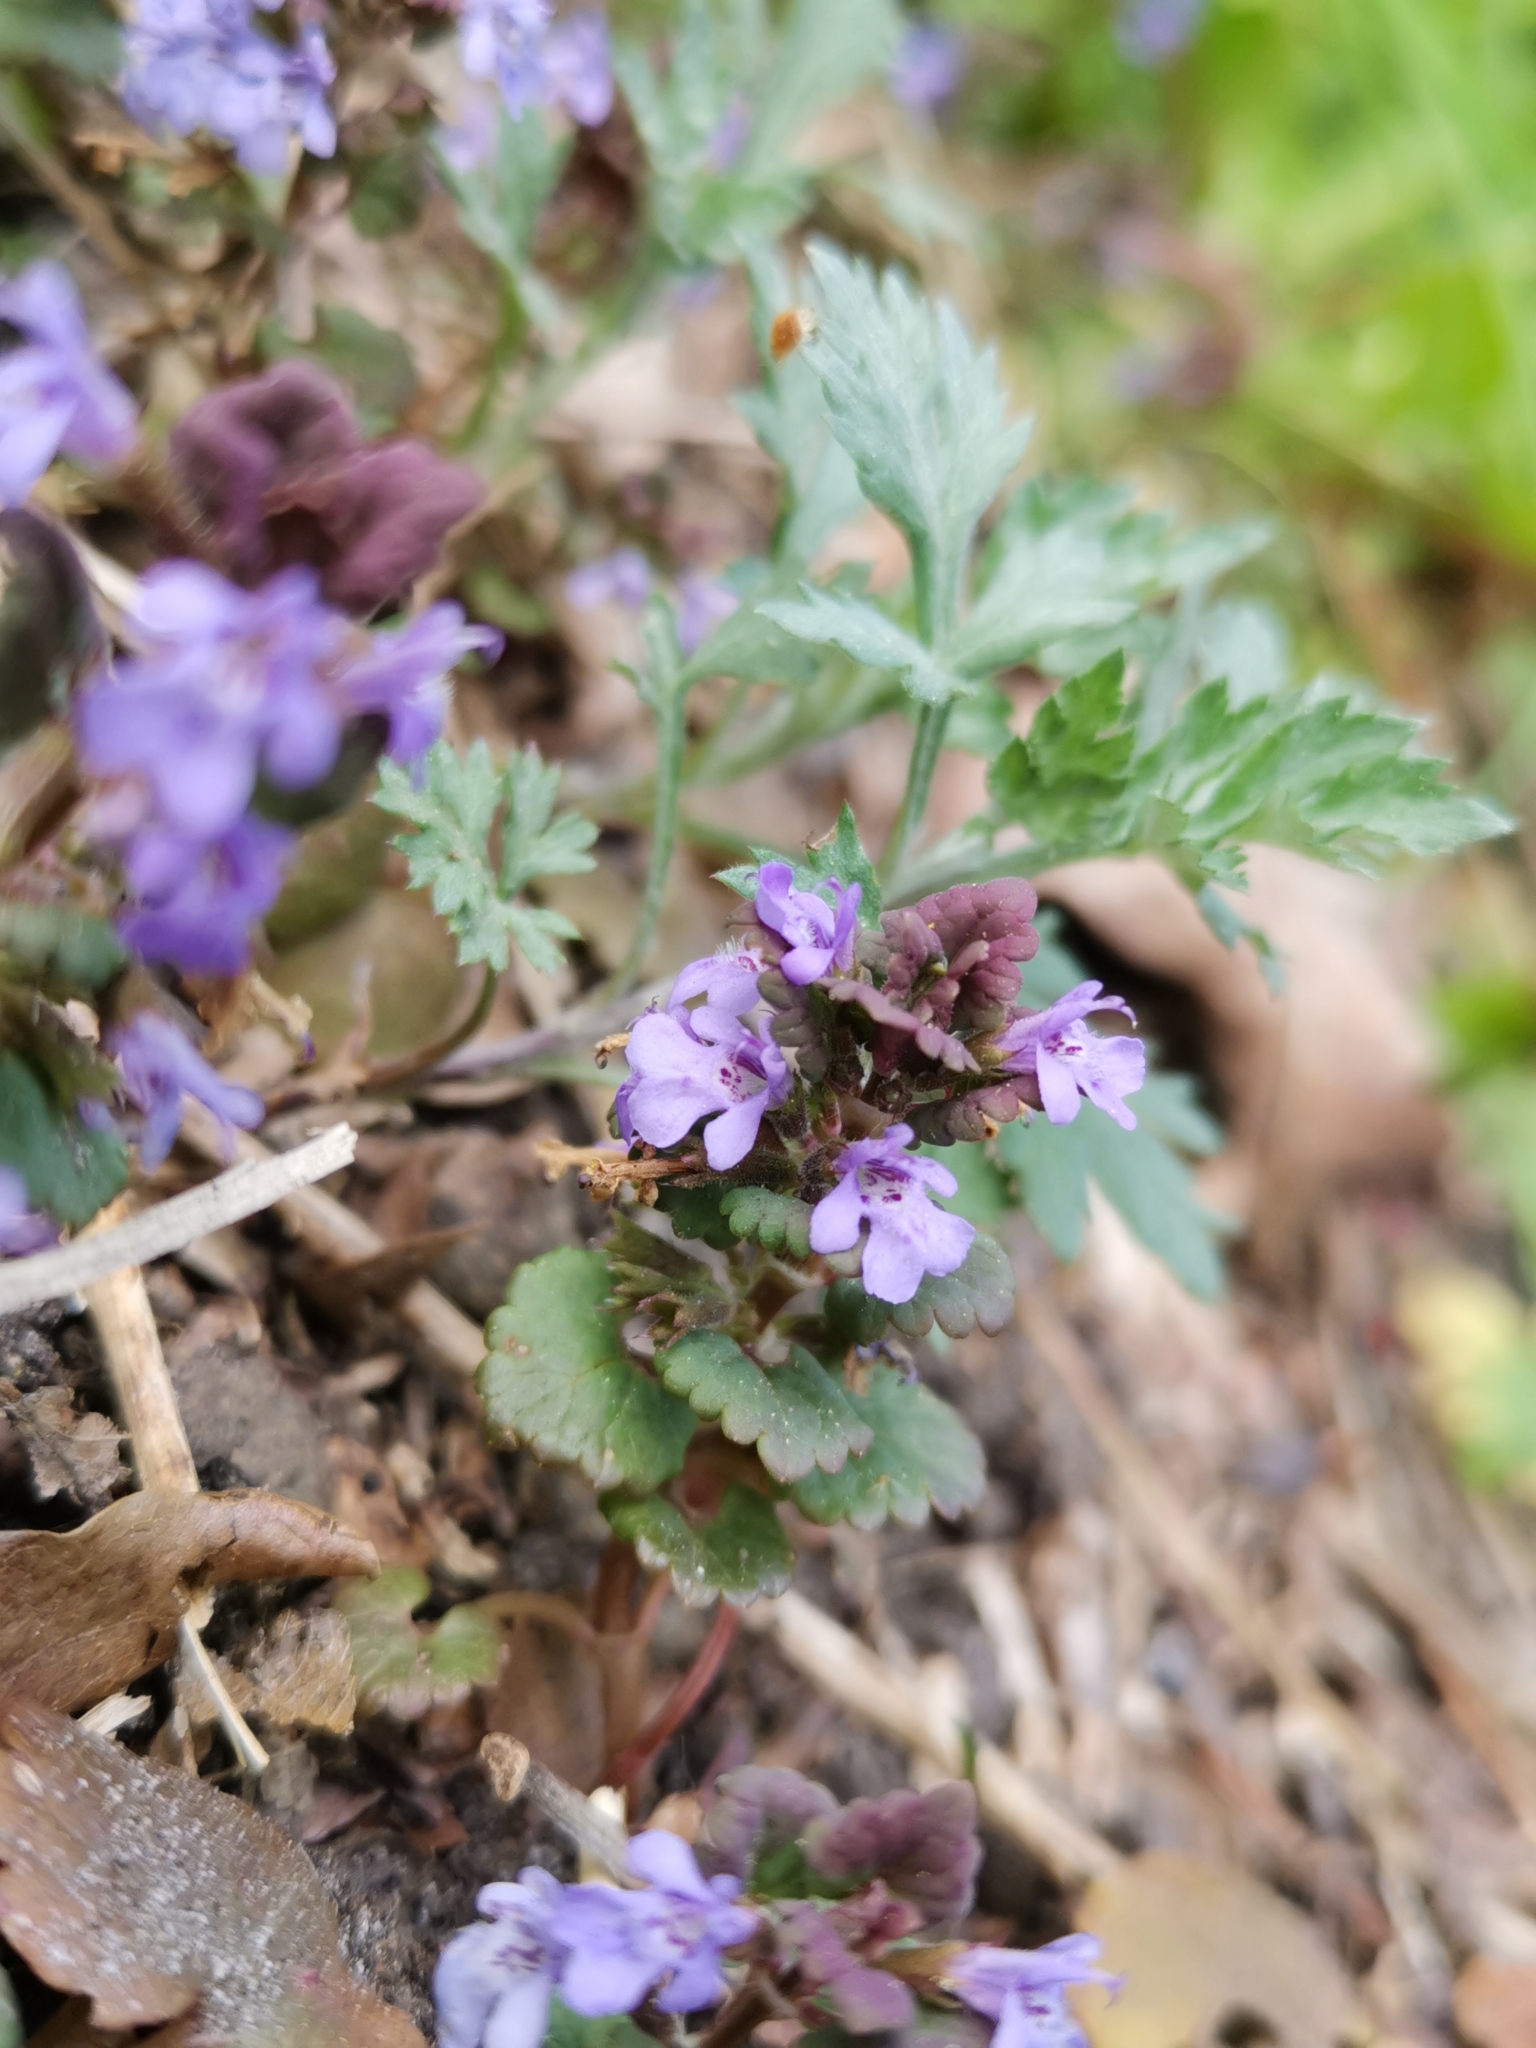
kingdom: Plantae
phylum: Tracheophyta
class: Magnoliopsida
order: Lamiales
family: Lamiaceae
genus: Glechoma
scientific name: Glechoma hederacea
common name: Ground ivy
